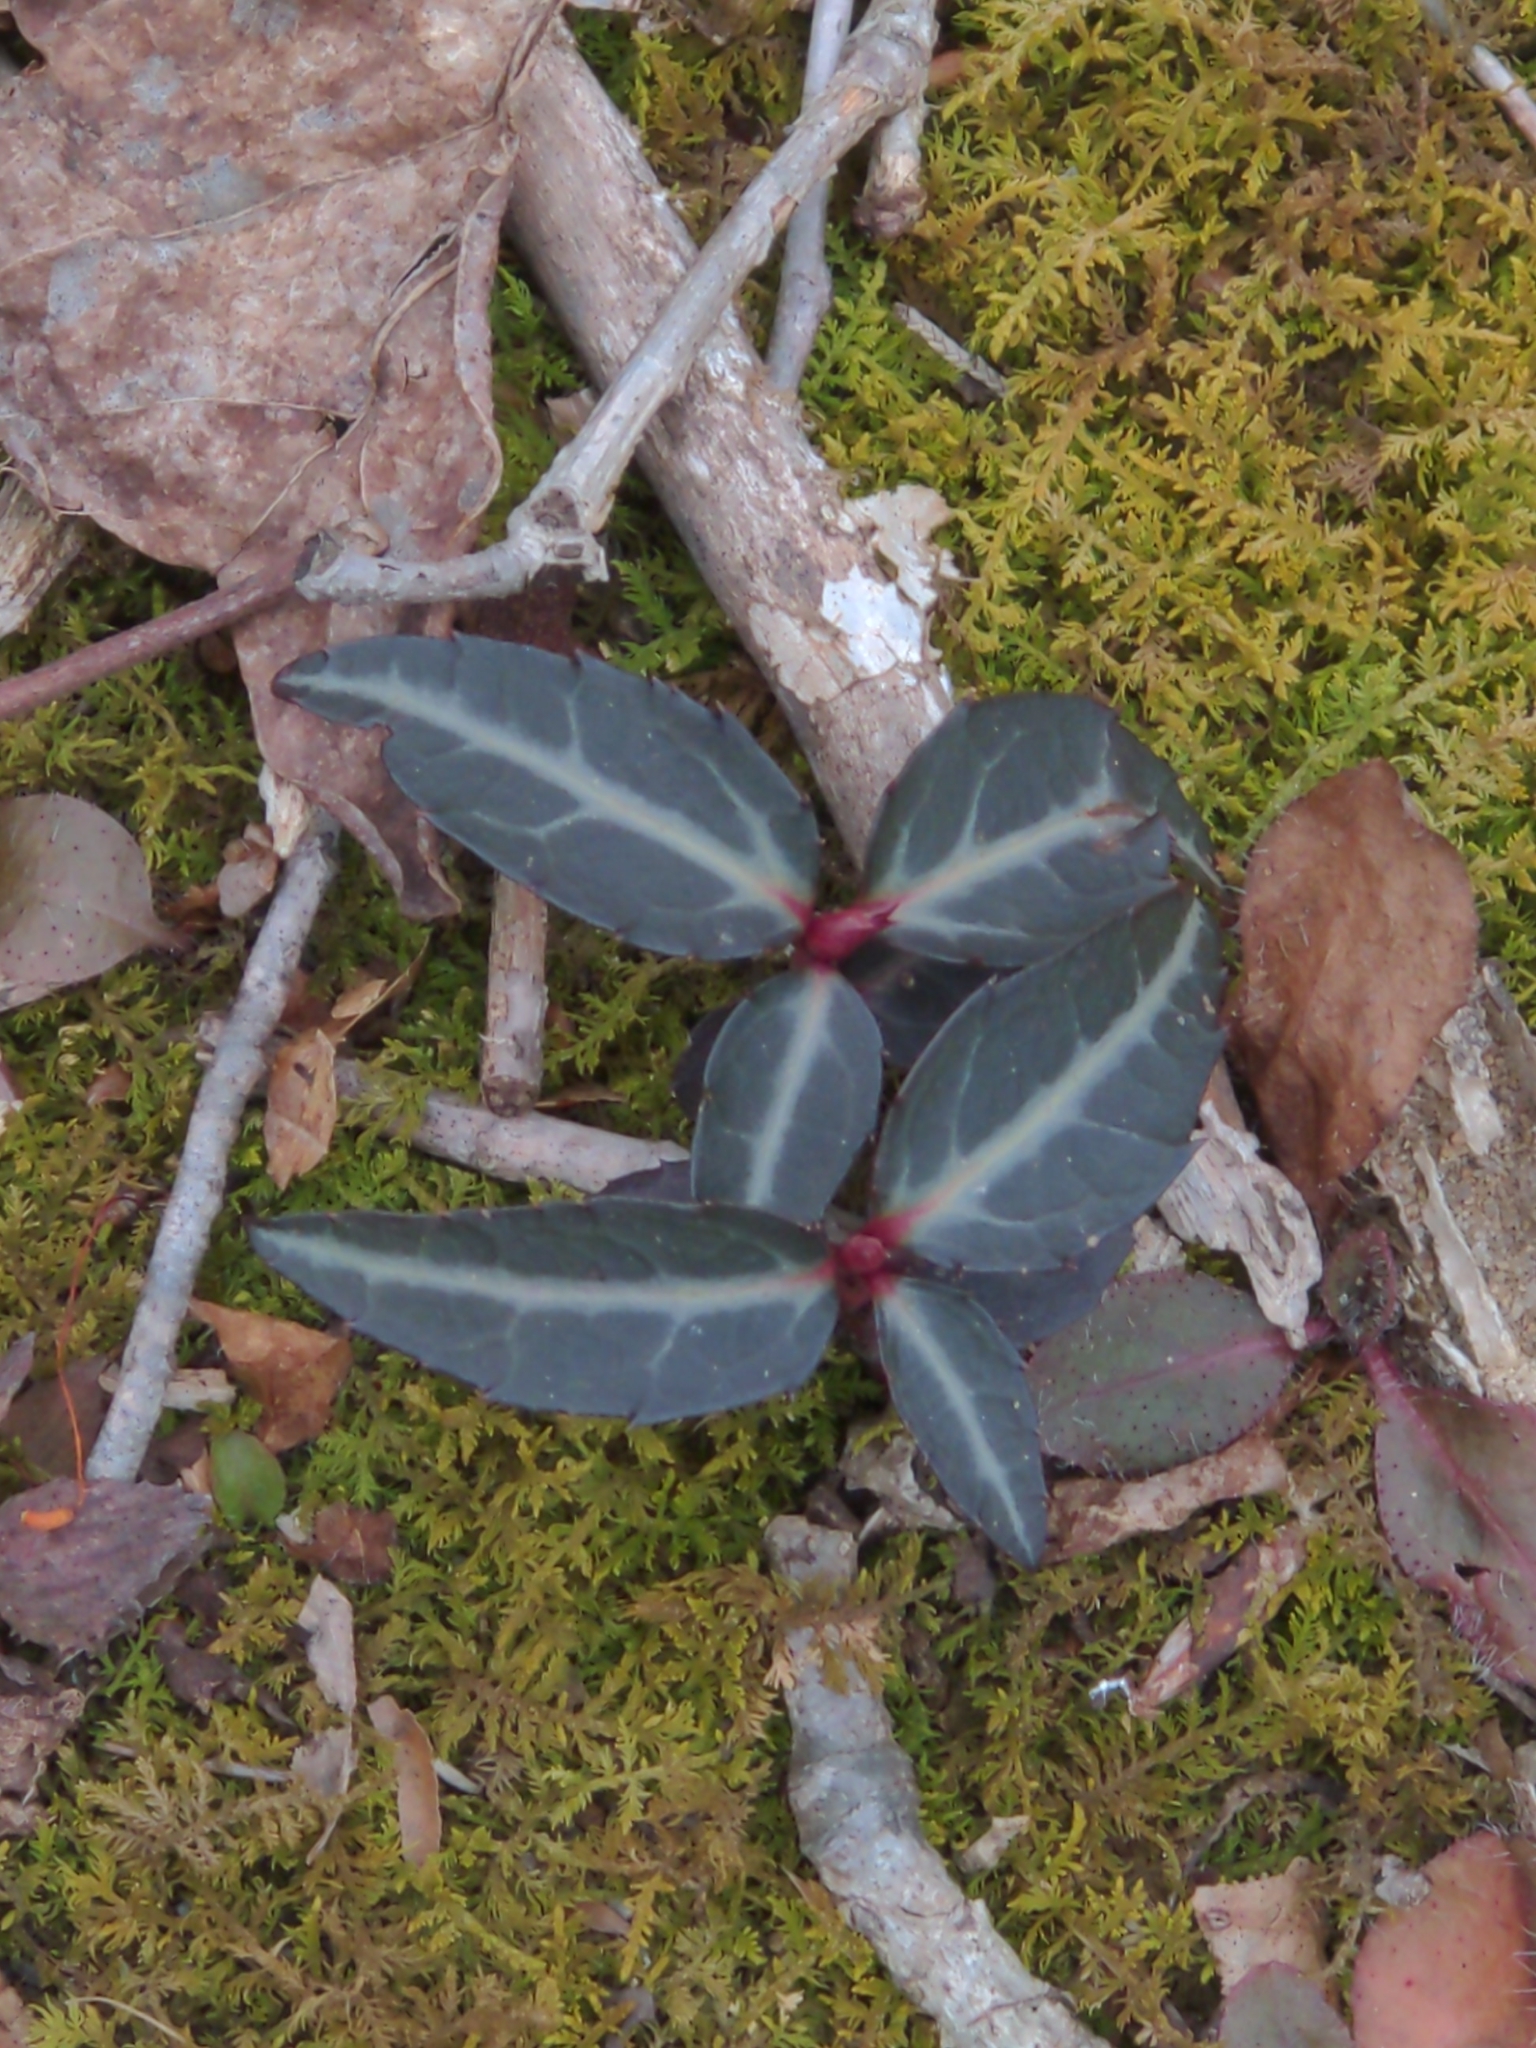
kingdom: Plantae
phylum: Tracheophyta
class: Magnoliopsida
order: Ericales
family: Ericaceae
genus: Chimaphila
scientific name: Chimaphila maculata
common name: Spotted pipsissewa
